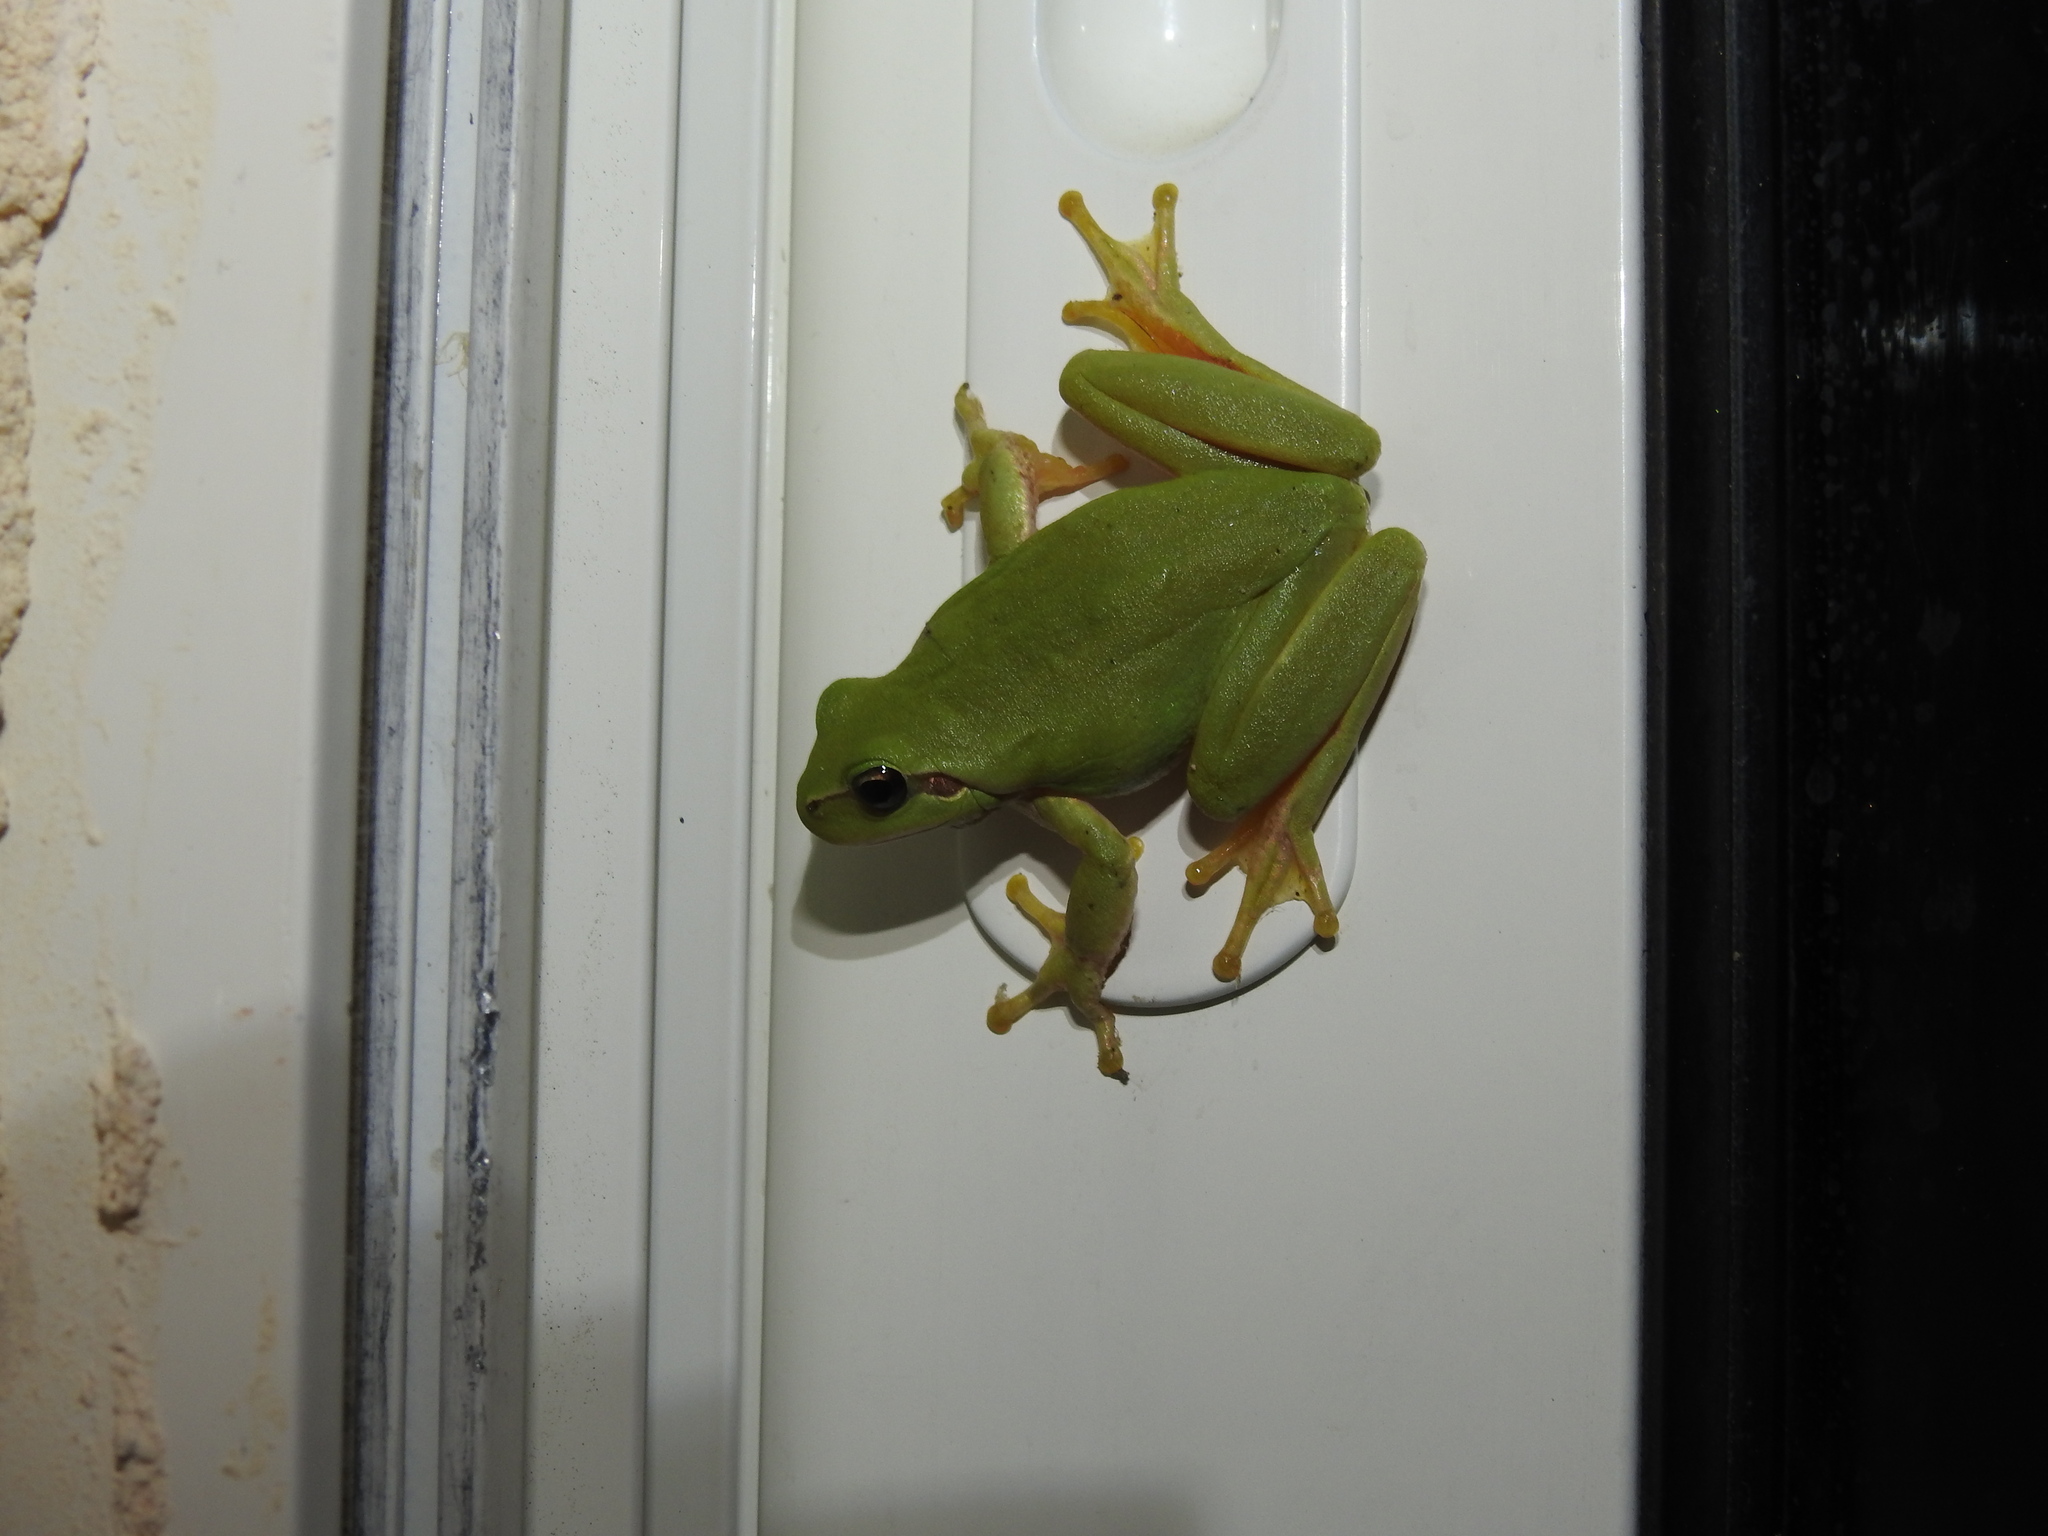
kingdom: Animalia
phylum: Chordata
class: Amphibia
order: Anura
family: Hylidae
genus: Hyla
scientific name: Hyla meridionalis
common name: Stripeless tree frog
